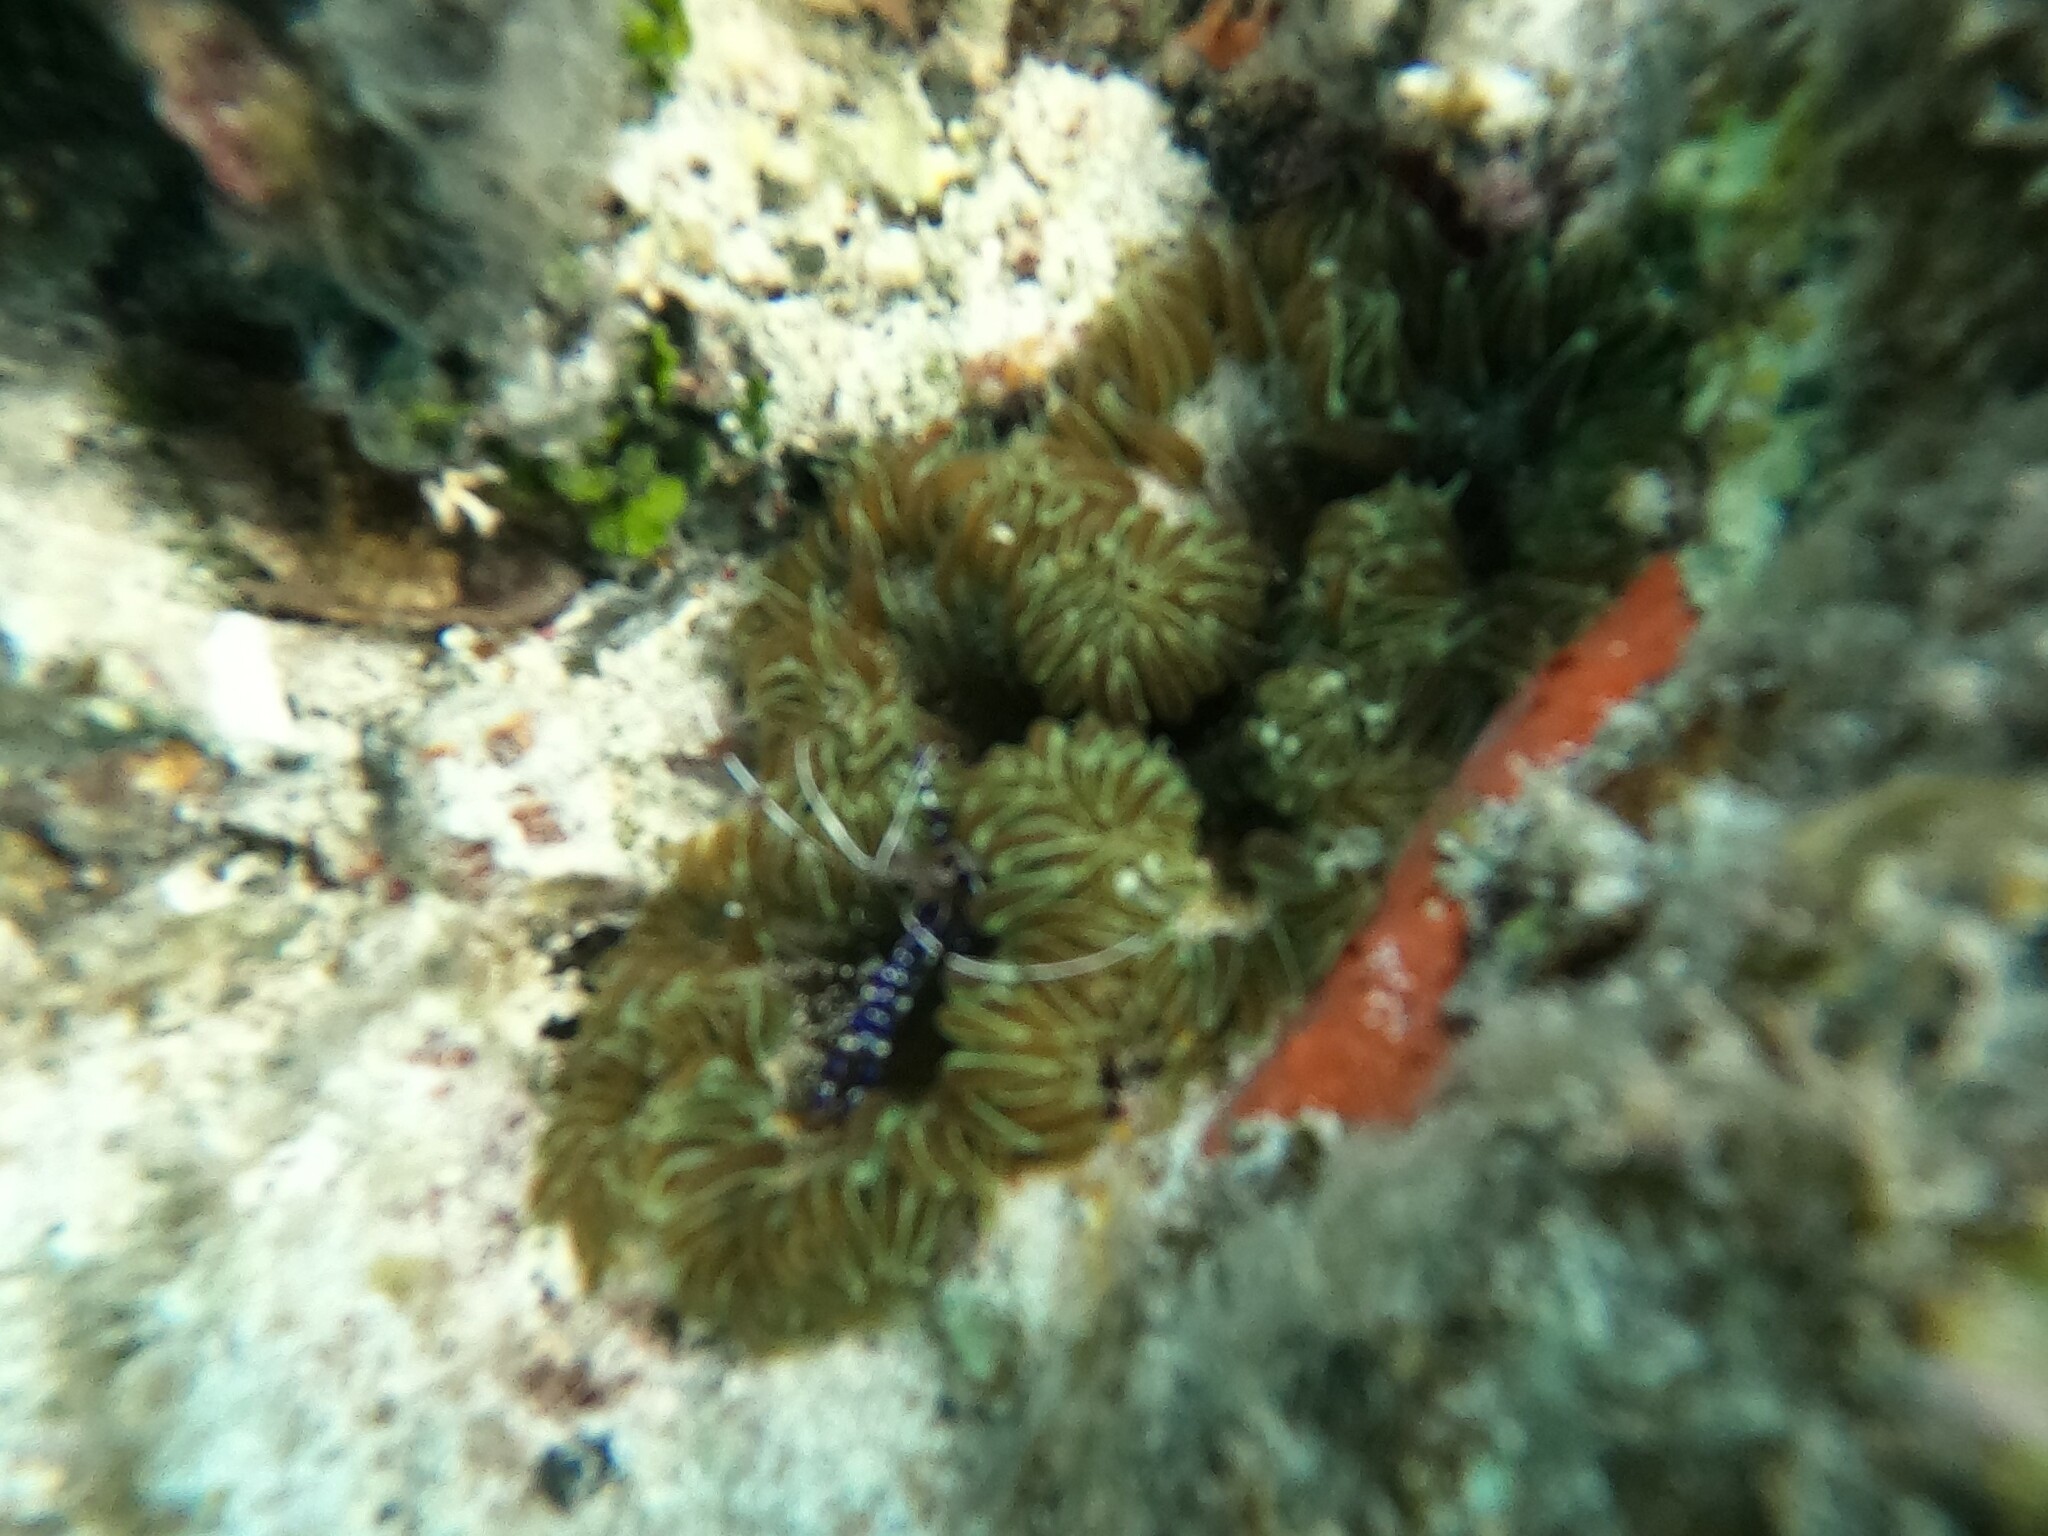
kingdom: Animalia
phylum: Cnidaria
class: Anthozoa
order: Actiniaria
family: Phymanthidae
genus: Phymanthus
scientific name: Phymanthus crucifer
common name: Red beaded anemone
